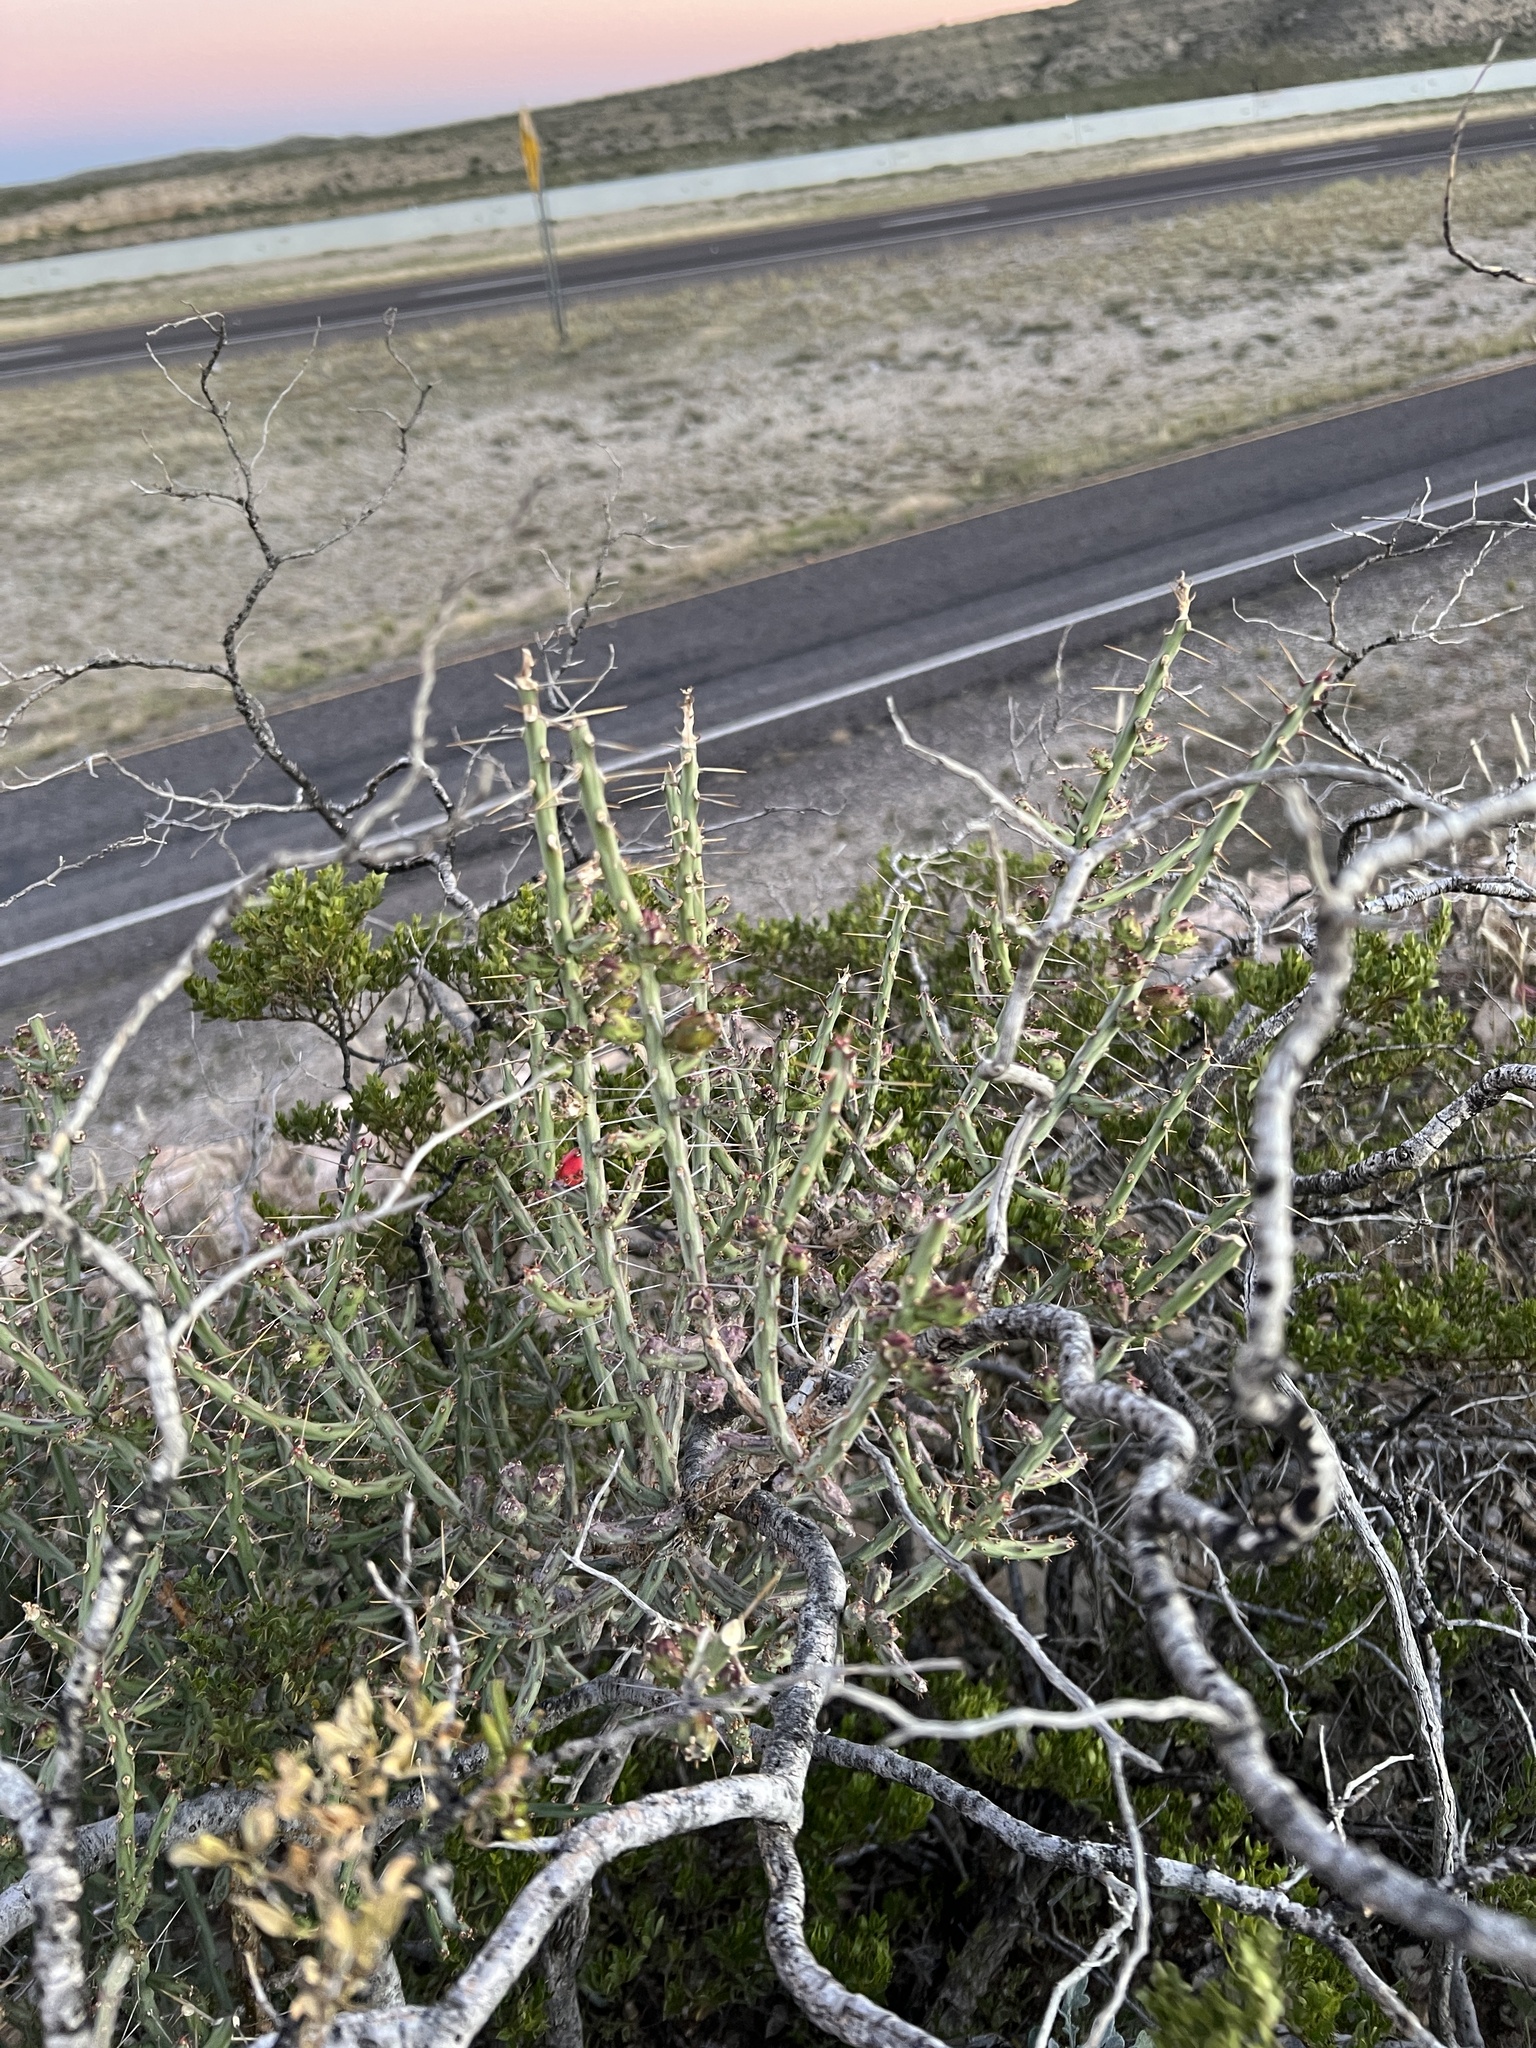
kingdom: Plantae
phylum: Tracheophyta
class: Magnoliopsida
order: Caryophyllales
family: Cactaceae
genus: Cylindropuntia
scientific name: Cylindropuntia leptocaulis
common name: Christmas cactus
